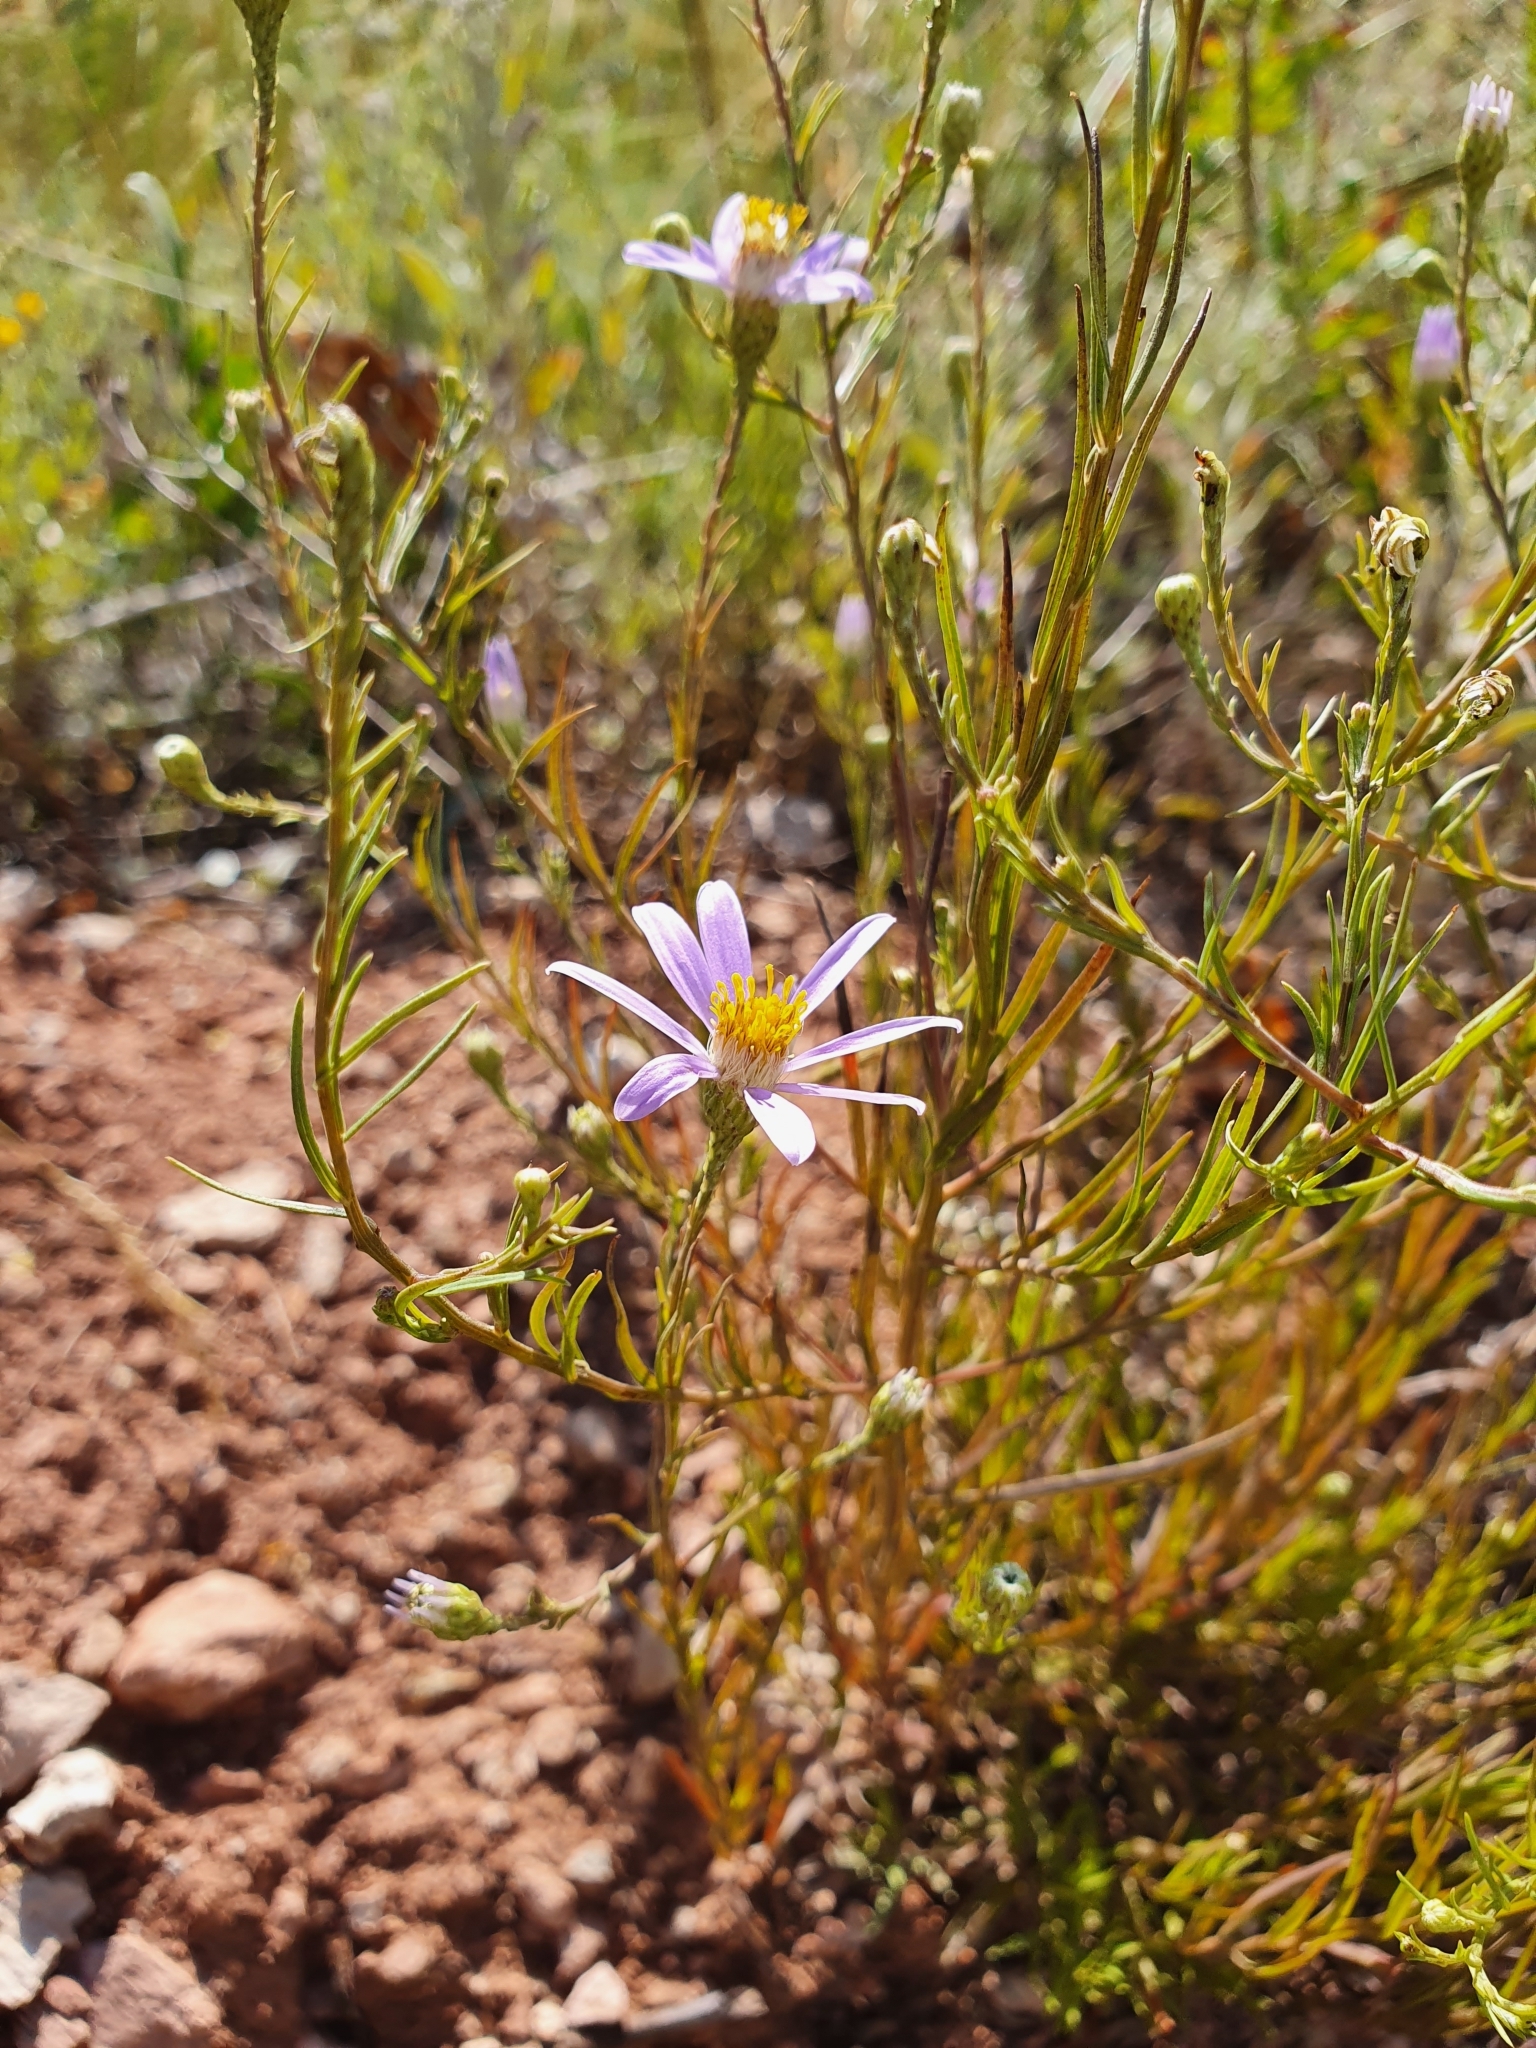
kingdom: Plantae
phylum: Tracheophyta
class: Magnoliopsida
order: Asterales
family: Asteraceae
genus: Galatella
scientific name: Galatella angustissima
